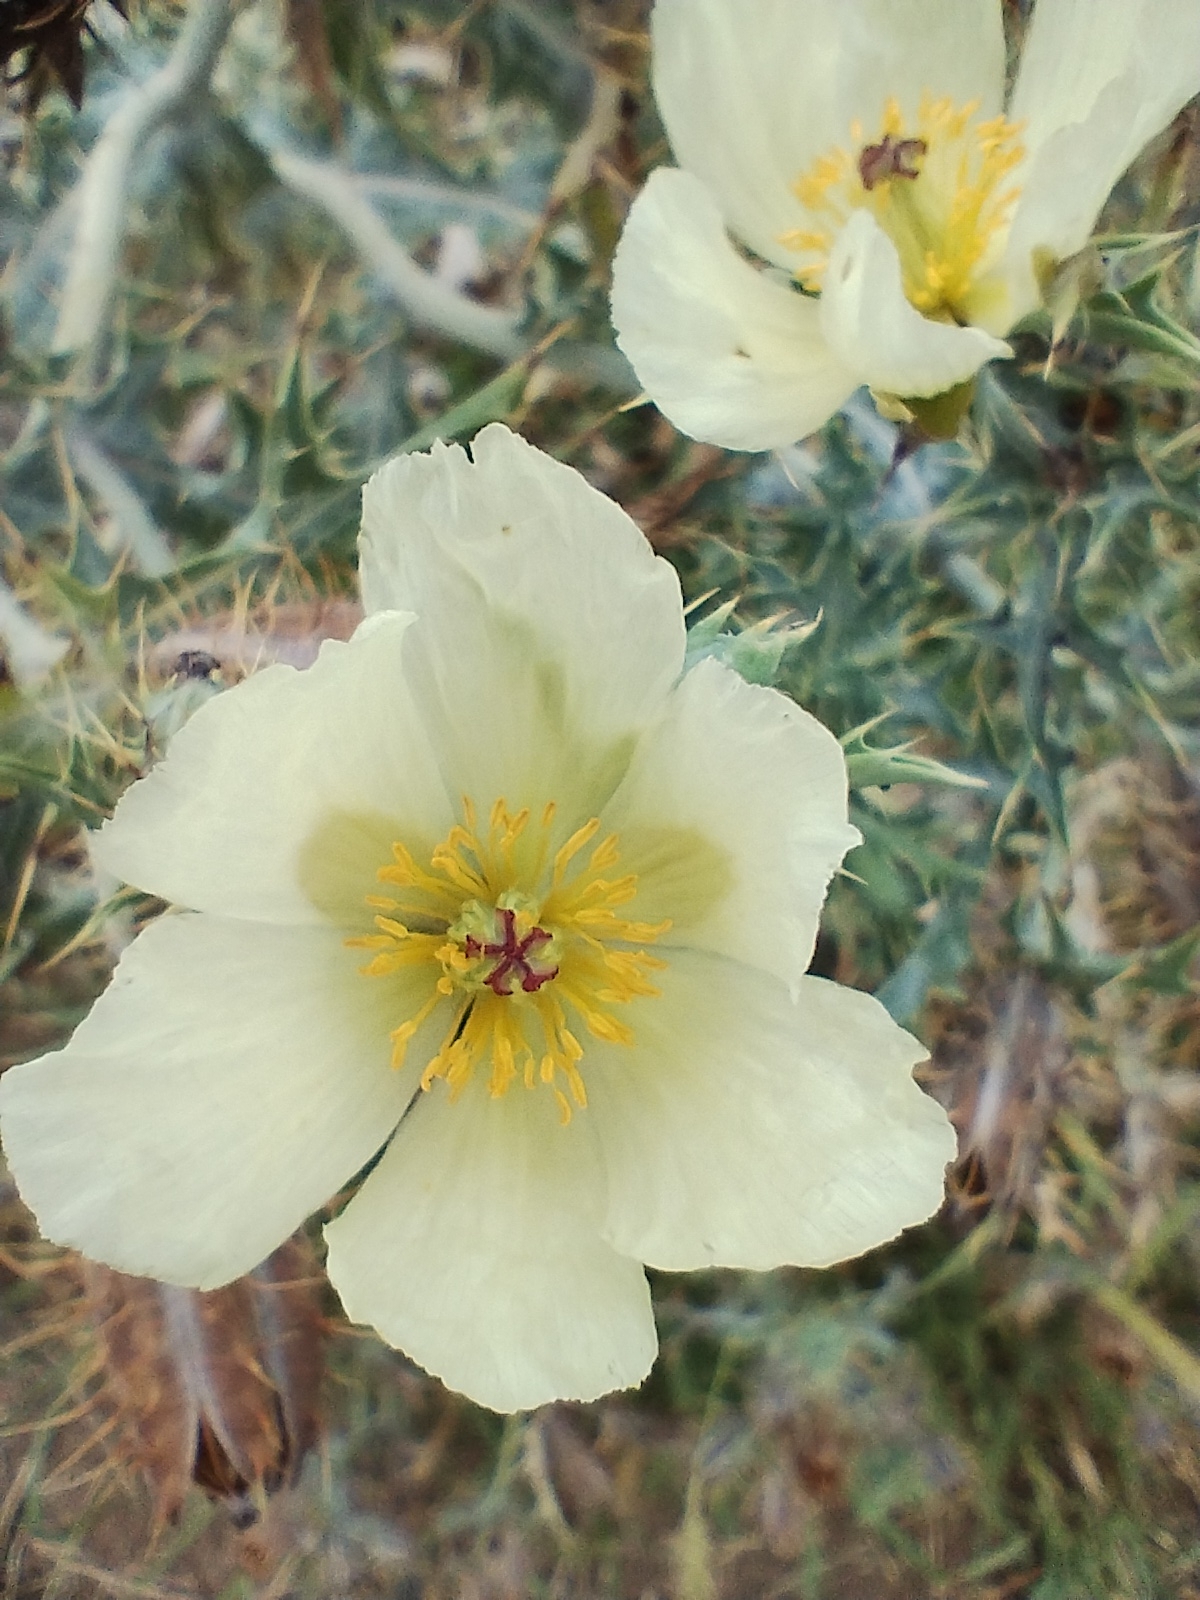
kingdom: Plantae
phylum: Tracheophyta
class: Magnoliopsida
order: Ranunculales
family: Papaveraceae
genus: Argemone
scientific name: Argemone subfusiformis
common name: American-poppy
